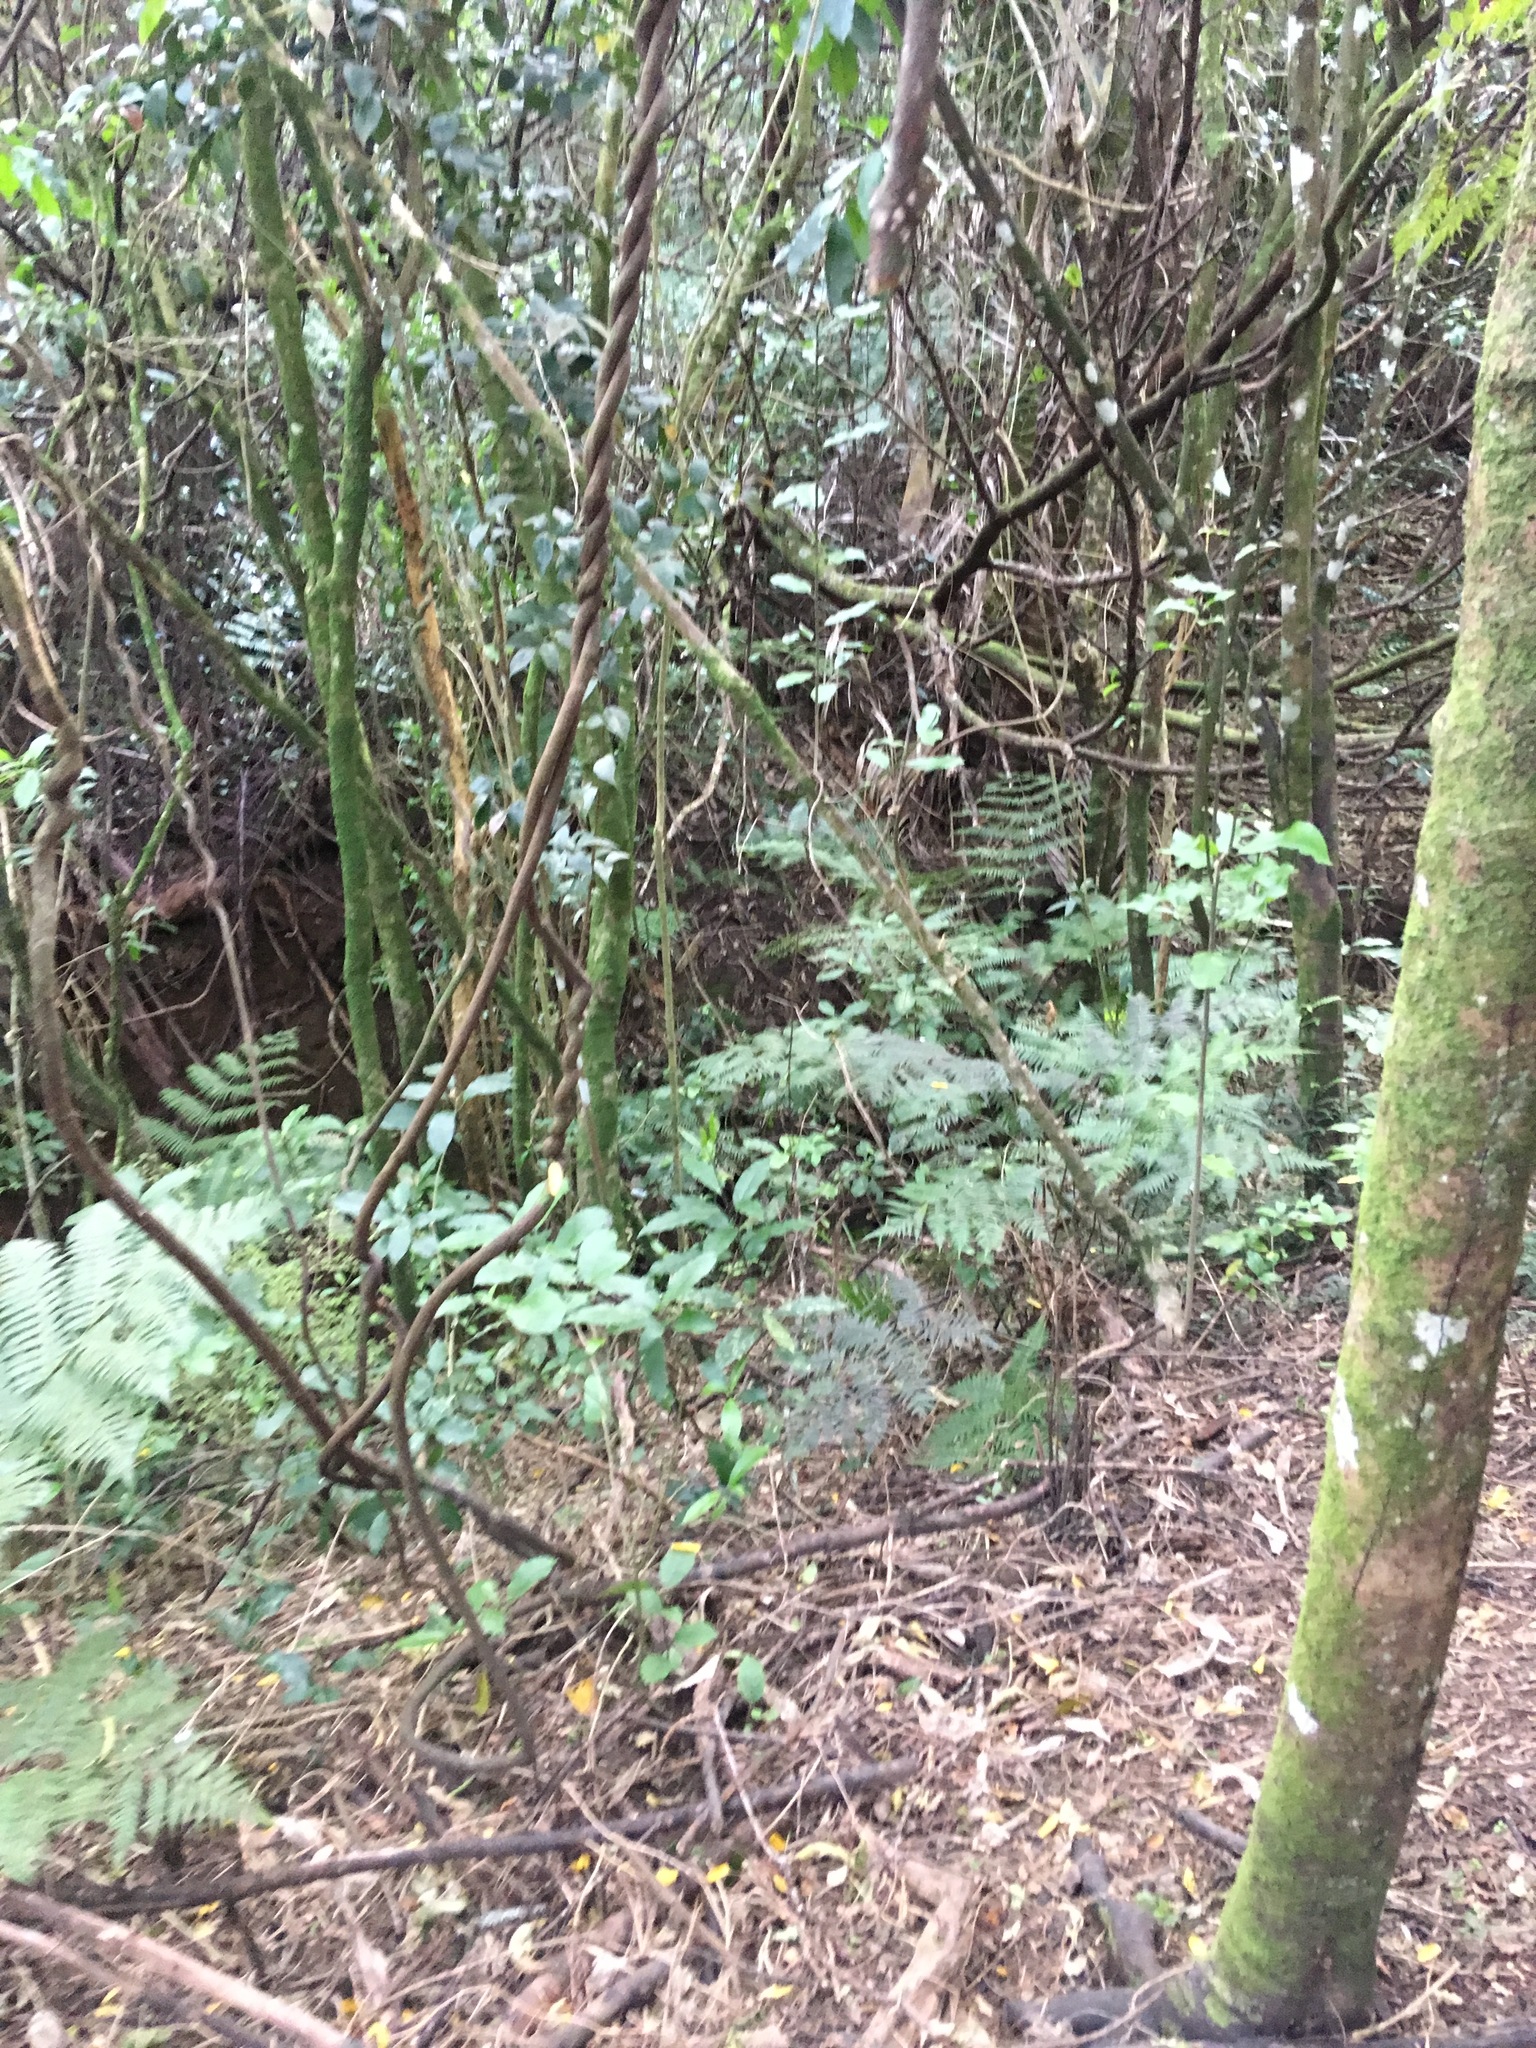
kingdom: Plantae
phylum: Tracheophyta
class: Magnoliopsida
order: Malpighiales
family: Passifloraceae
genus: Passiflora
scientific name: Passiflora tetrandra
